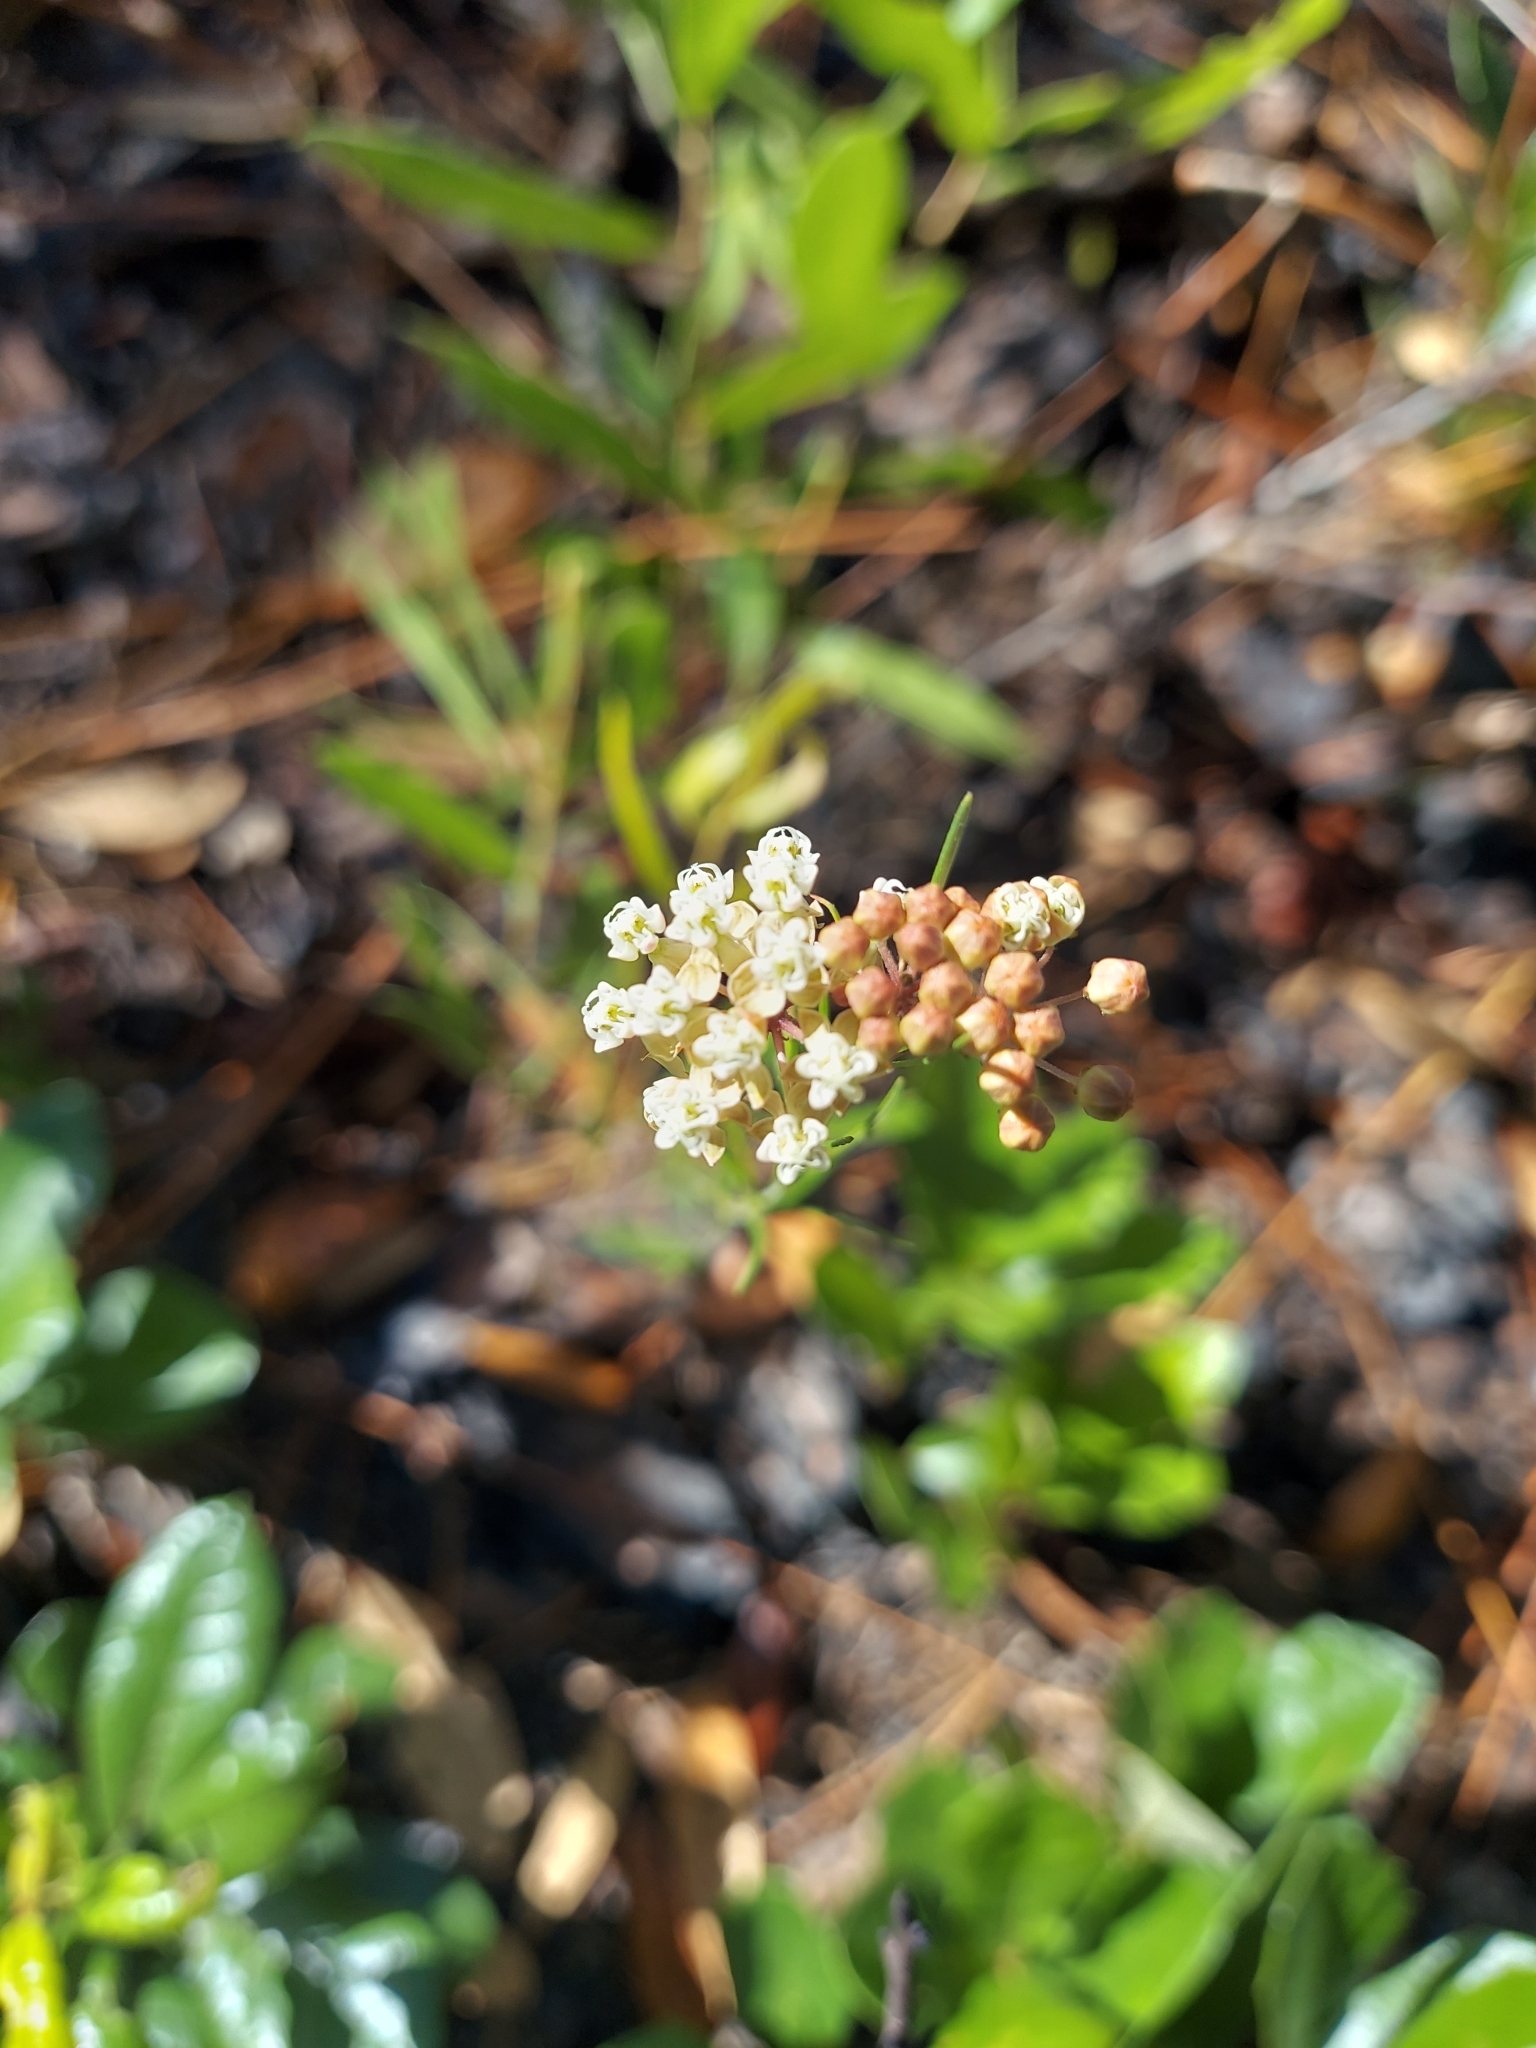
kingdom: Plantae
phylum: Tracheophyta
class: Magnoliopsida
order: Gentianales
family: Apocynaceae
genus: Asclepias
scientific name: Asclepias verticillata
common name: Eastern whorled milkweed
